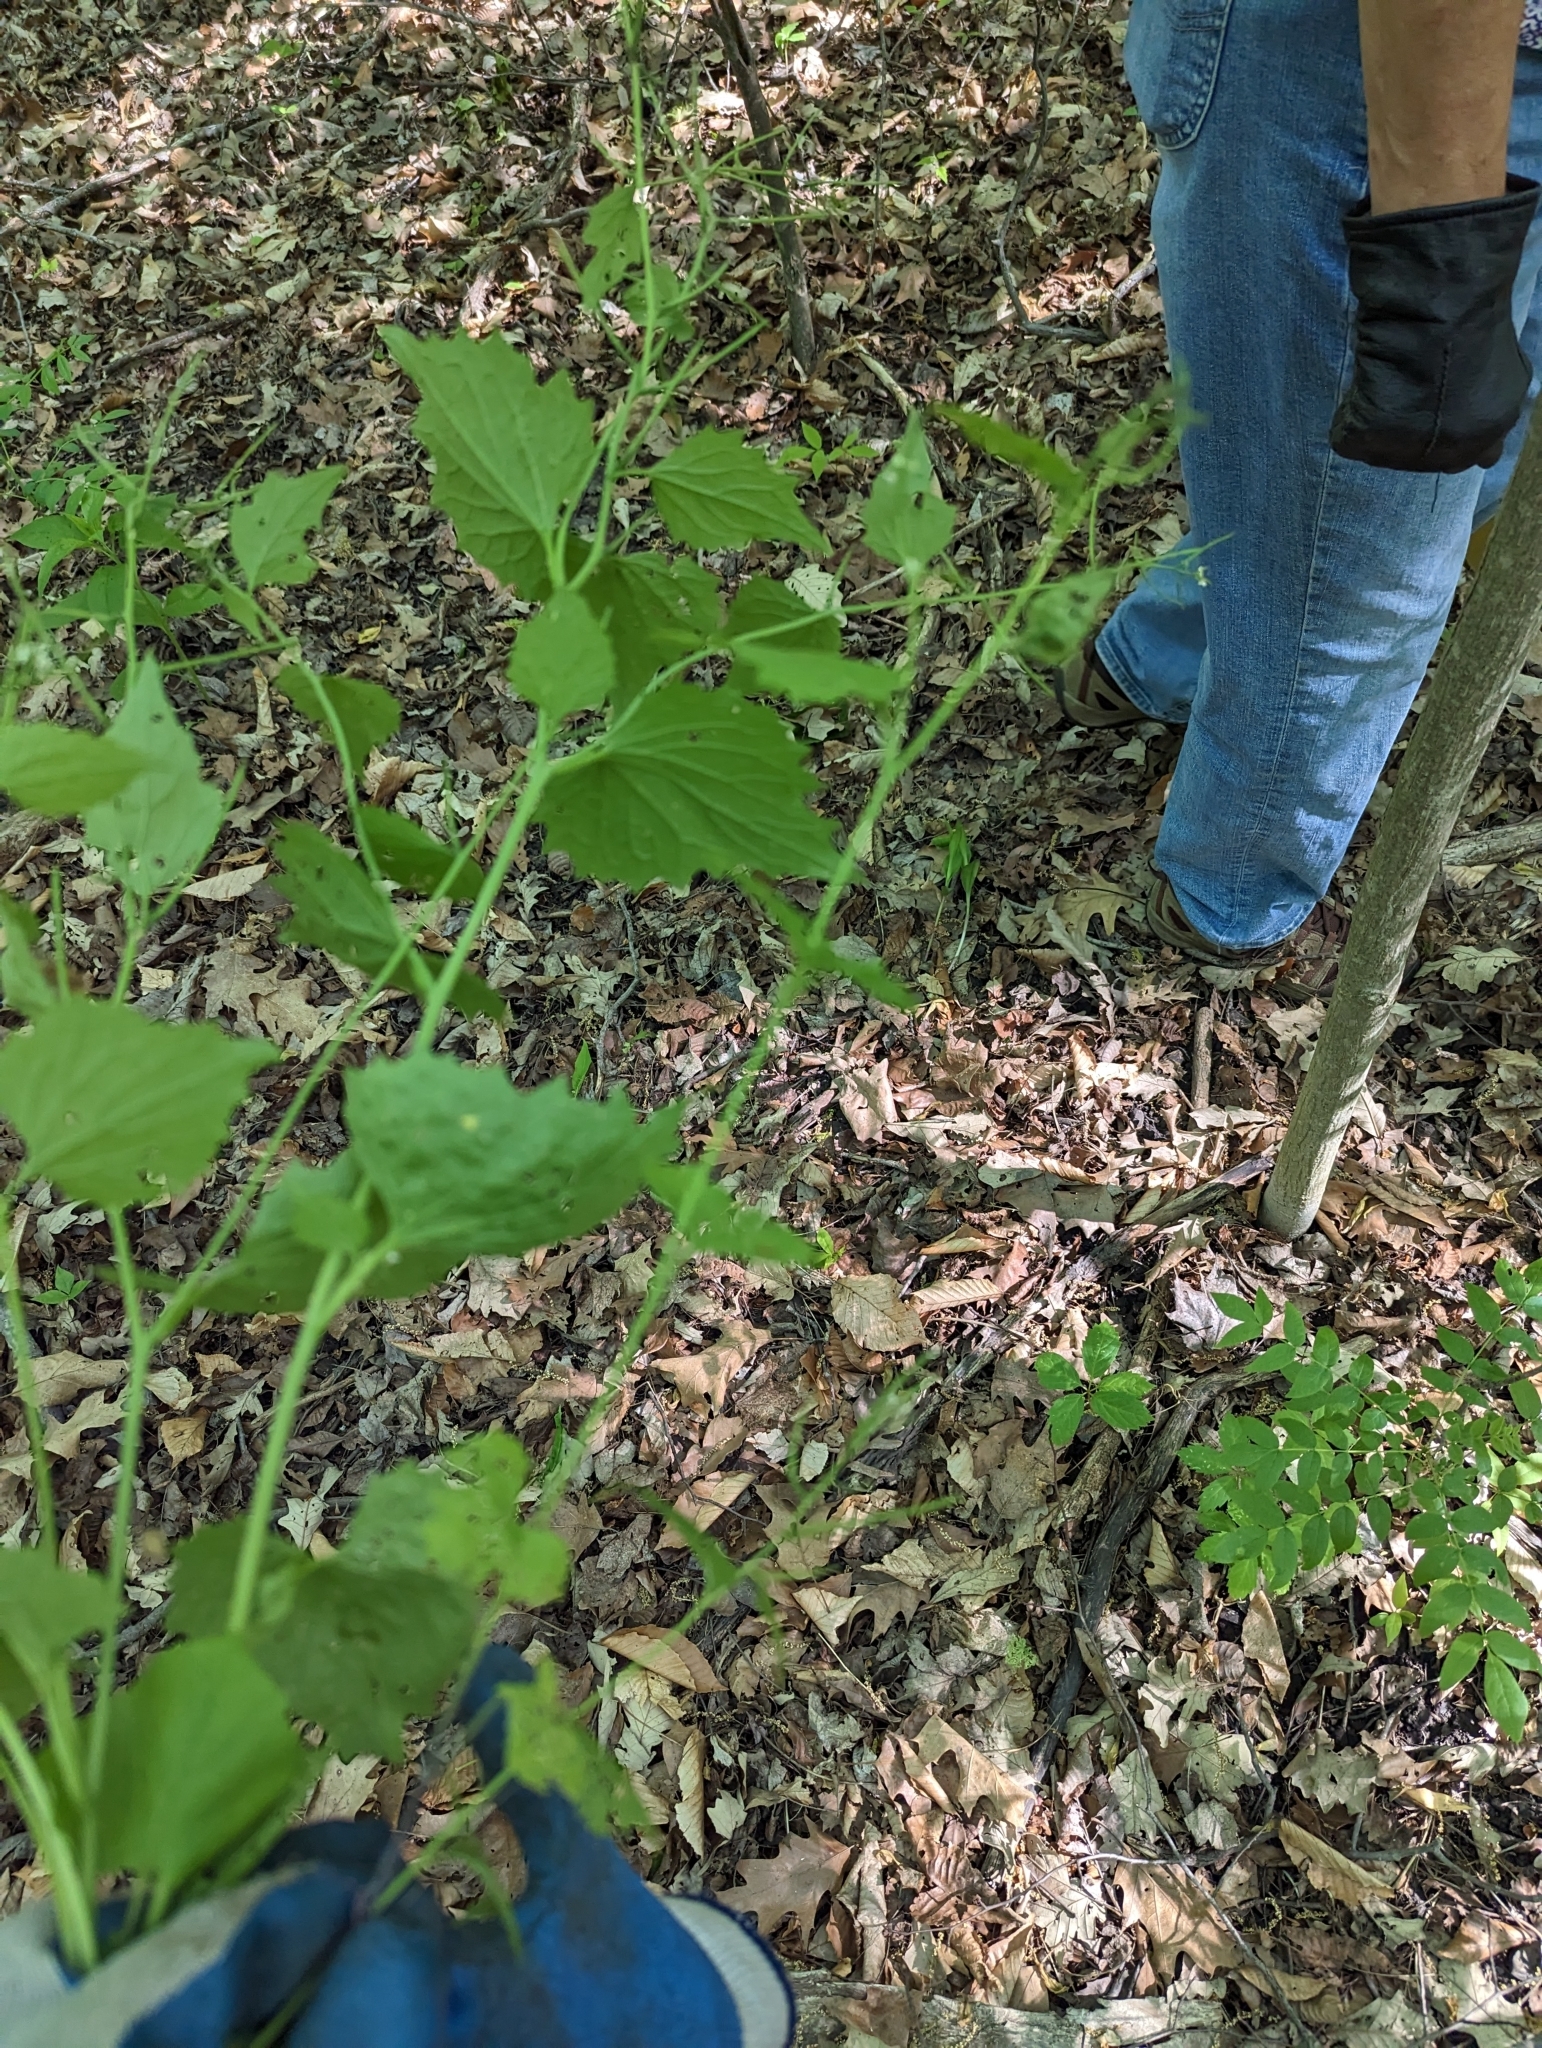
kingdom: Plantae
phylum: Tracheophyta
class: Magnoliopsida
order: Brassicales
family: Brassicaceae
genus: Alliaria
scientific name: Alliaria petiolata
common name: Garlic mustard
